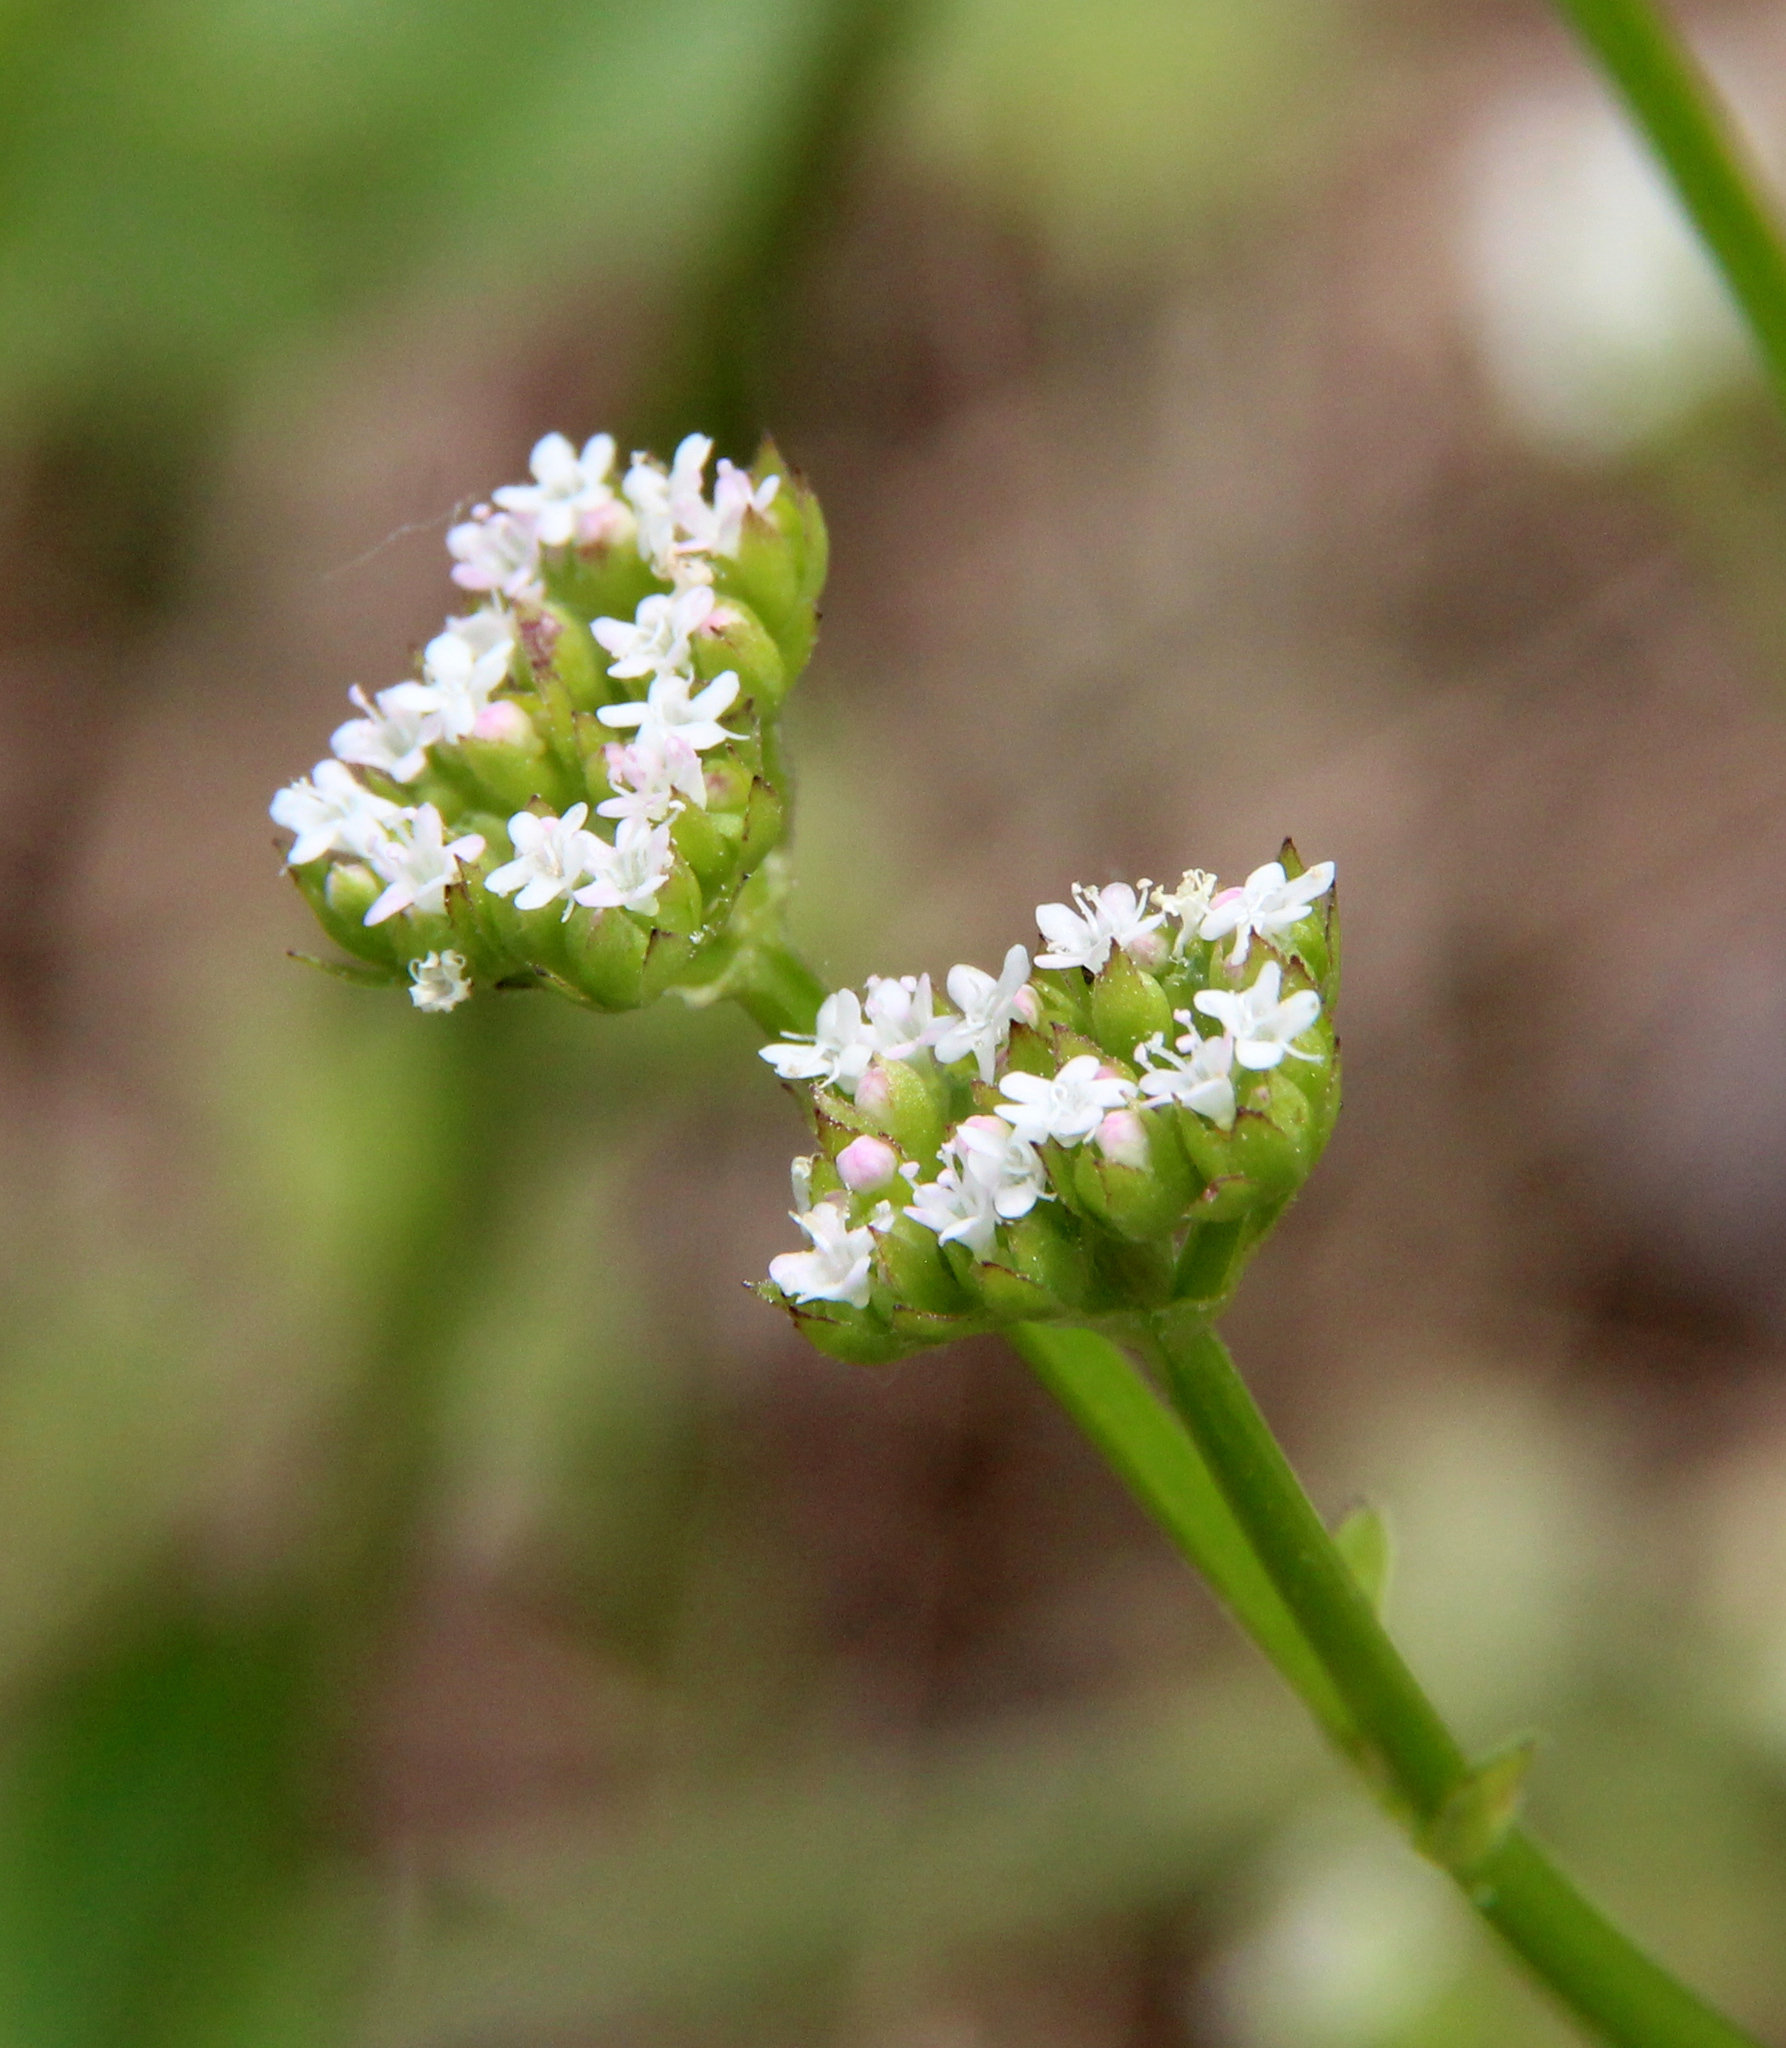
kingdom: Plantae
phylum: Tracheophyta
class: Magnoliopsida
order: Dipsacales
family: Caprifoliaceae
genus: Valerianella
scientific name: Valerianella radiata
